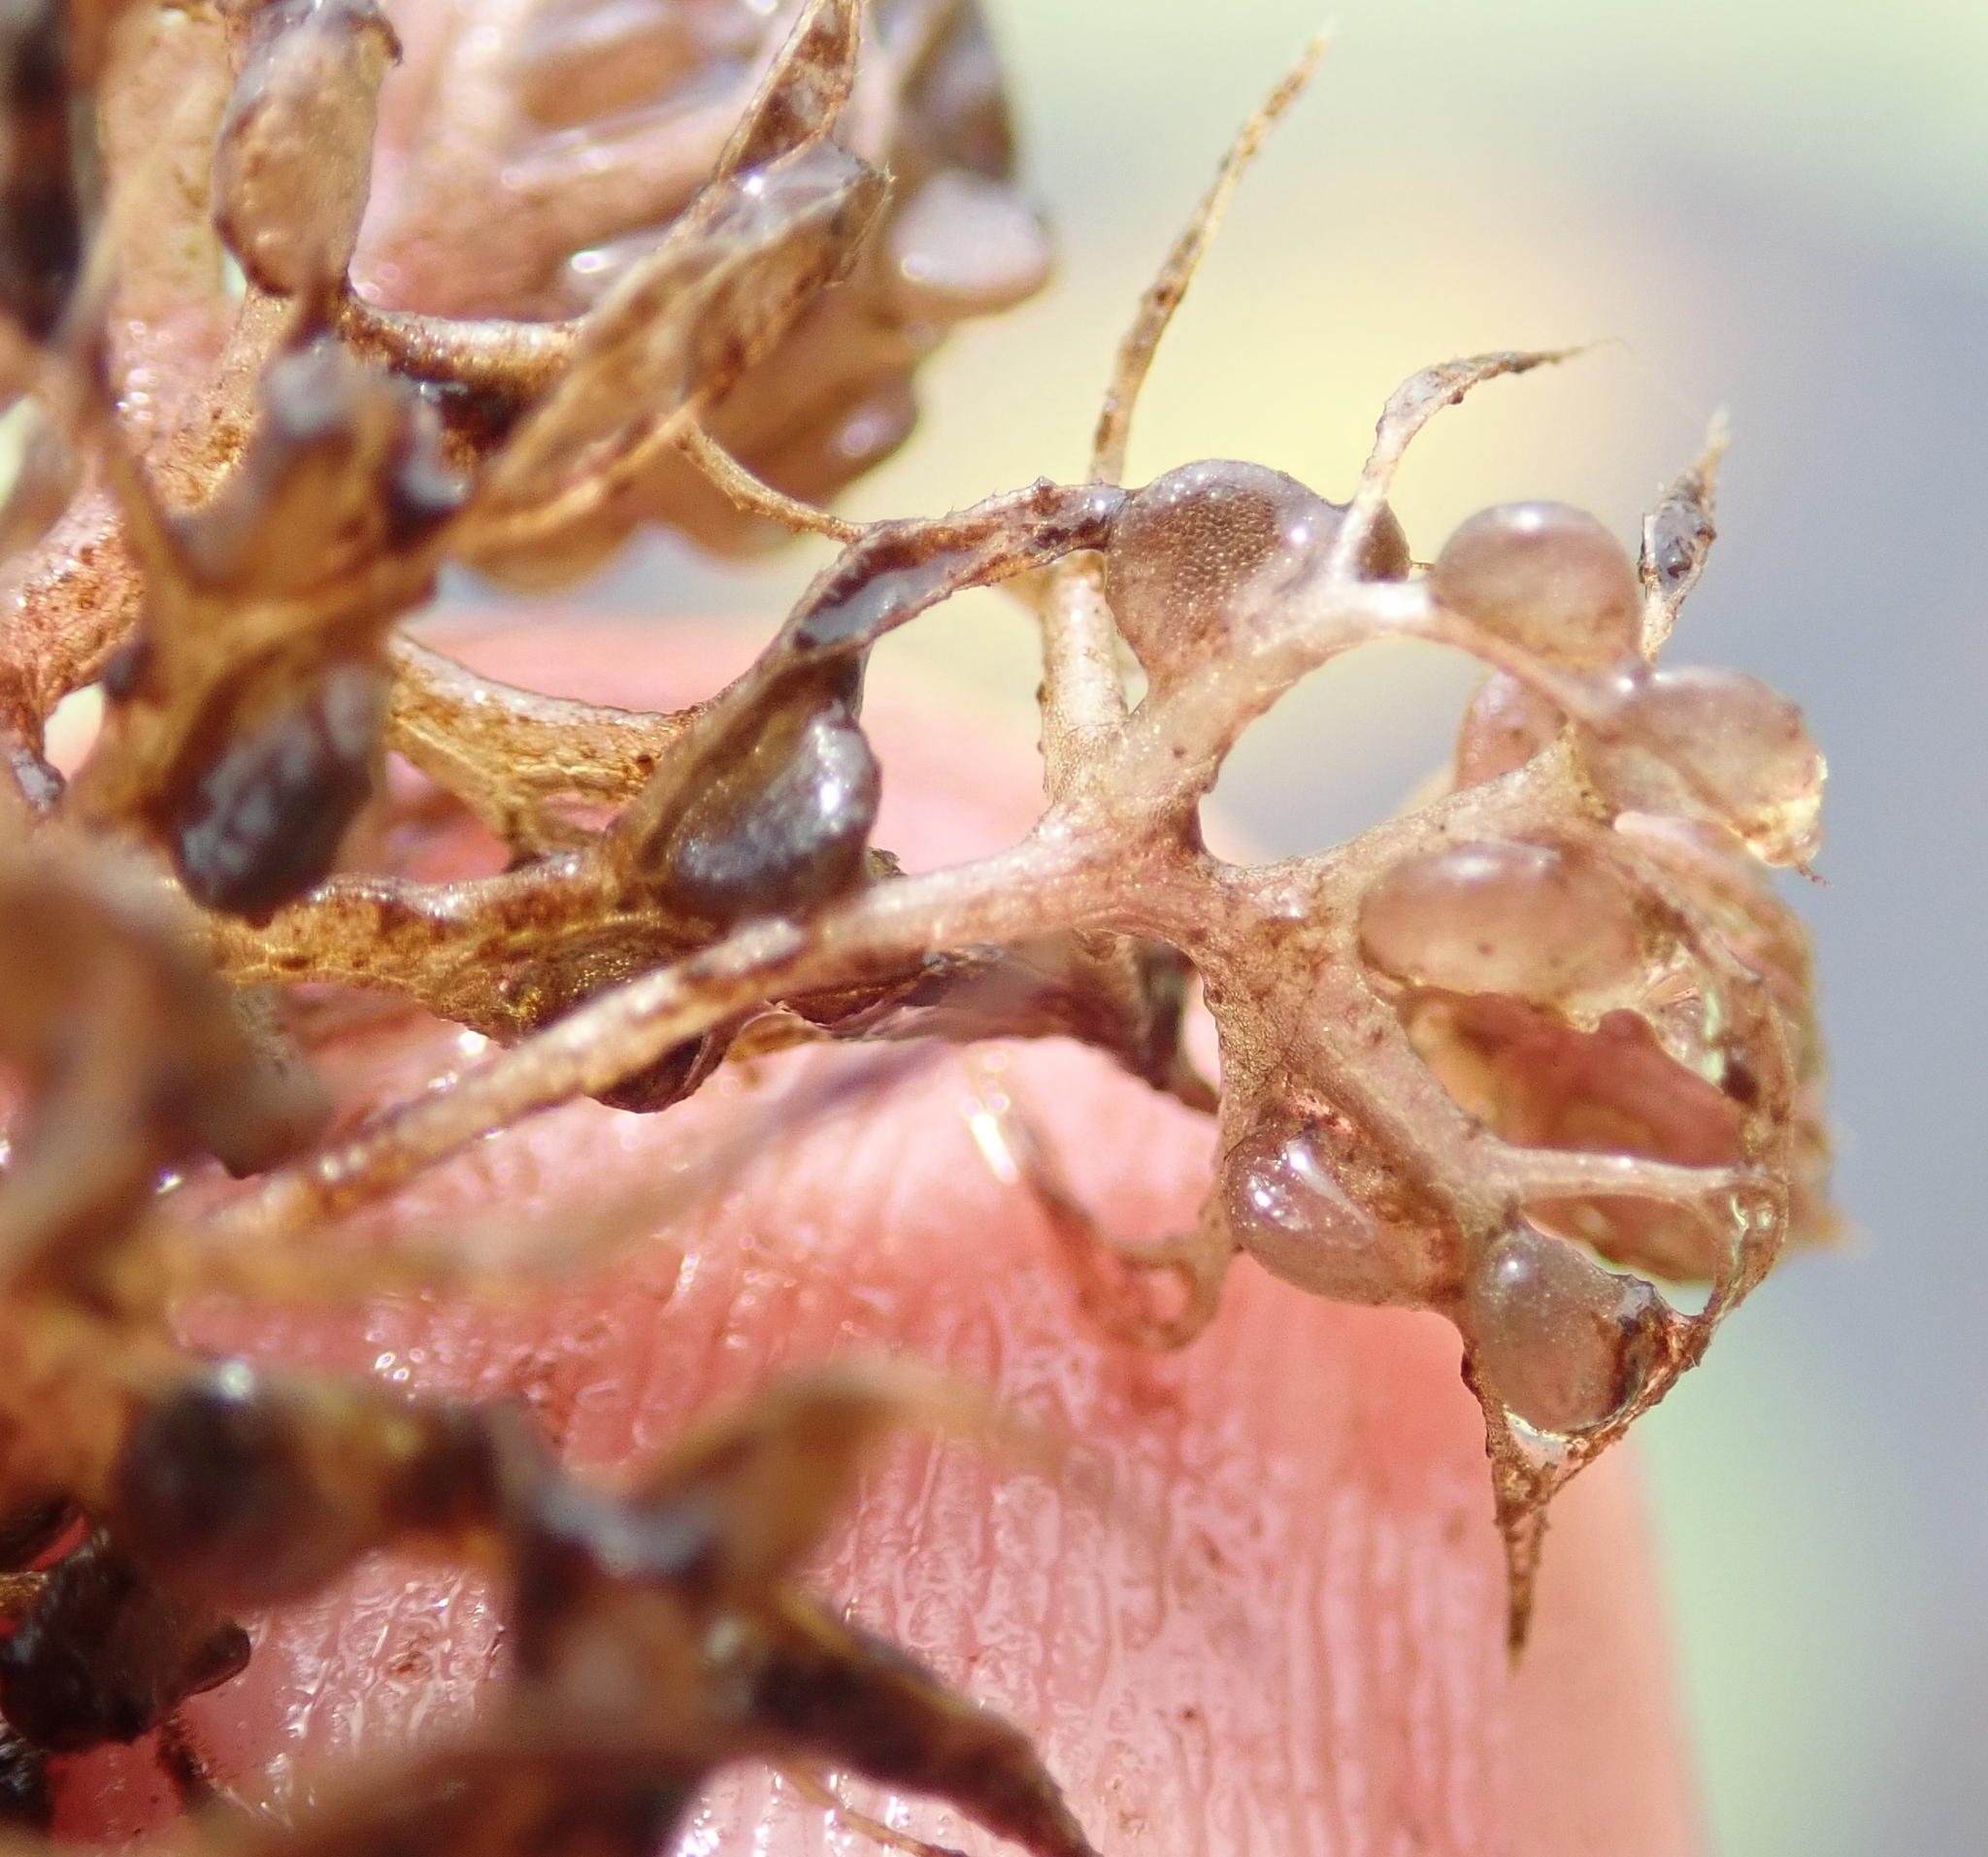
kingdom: Plantae
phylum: Tracheophyta
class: Magnoliopsida
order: Lamiales
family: Lentibulariaceae
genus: Utricularia
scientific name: Utricularia raynalii
